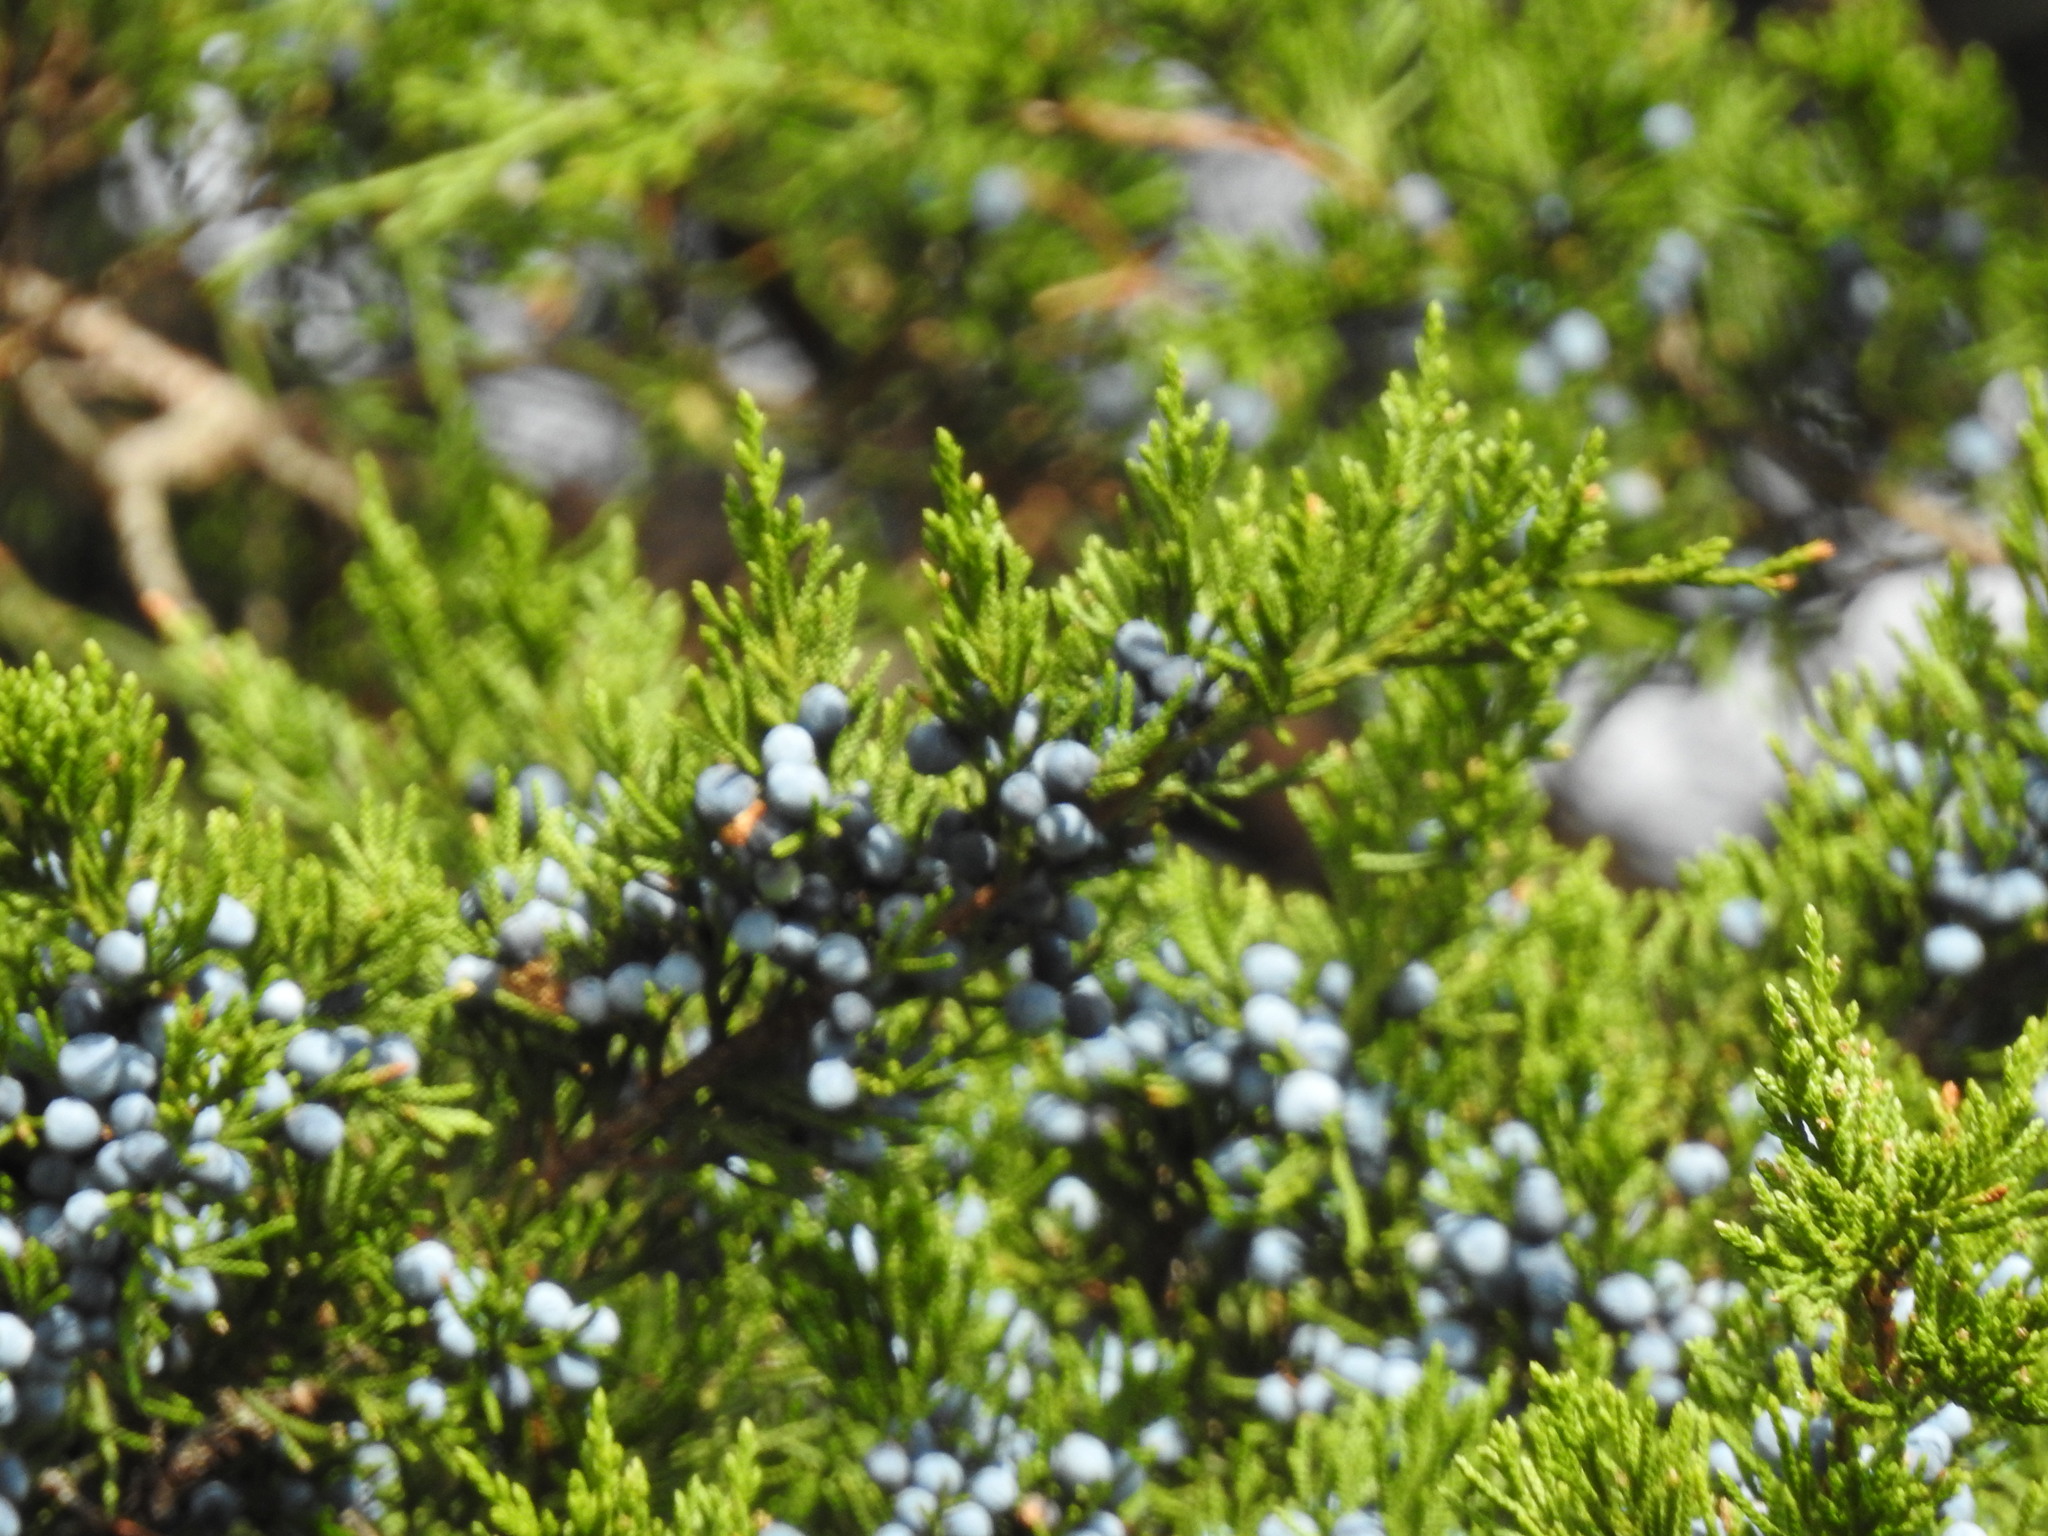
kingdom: Plantae
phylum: Tracheophyta
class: Pinopsida
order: Pinales
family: Cupressaceae
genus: Juniperus
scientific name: Juniperus virginiana
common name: Red juniper
